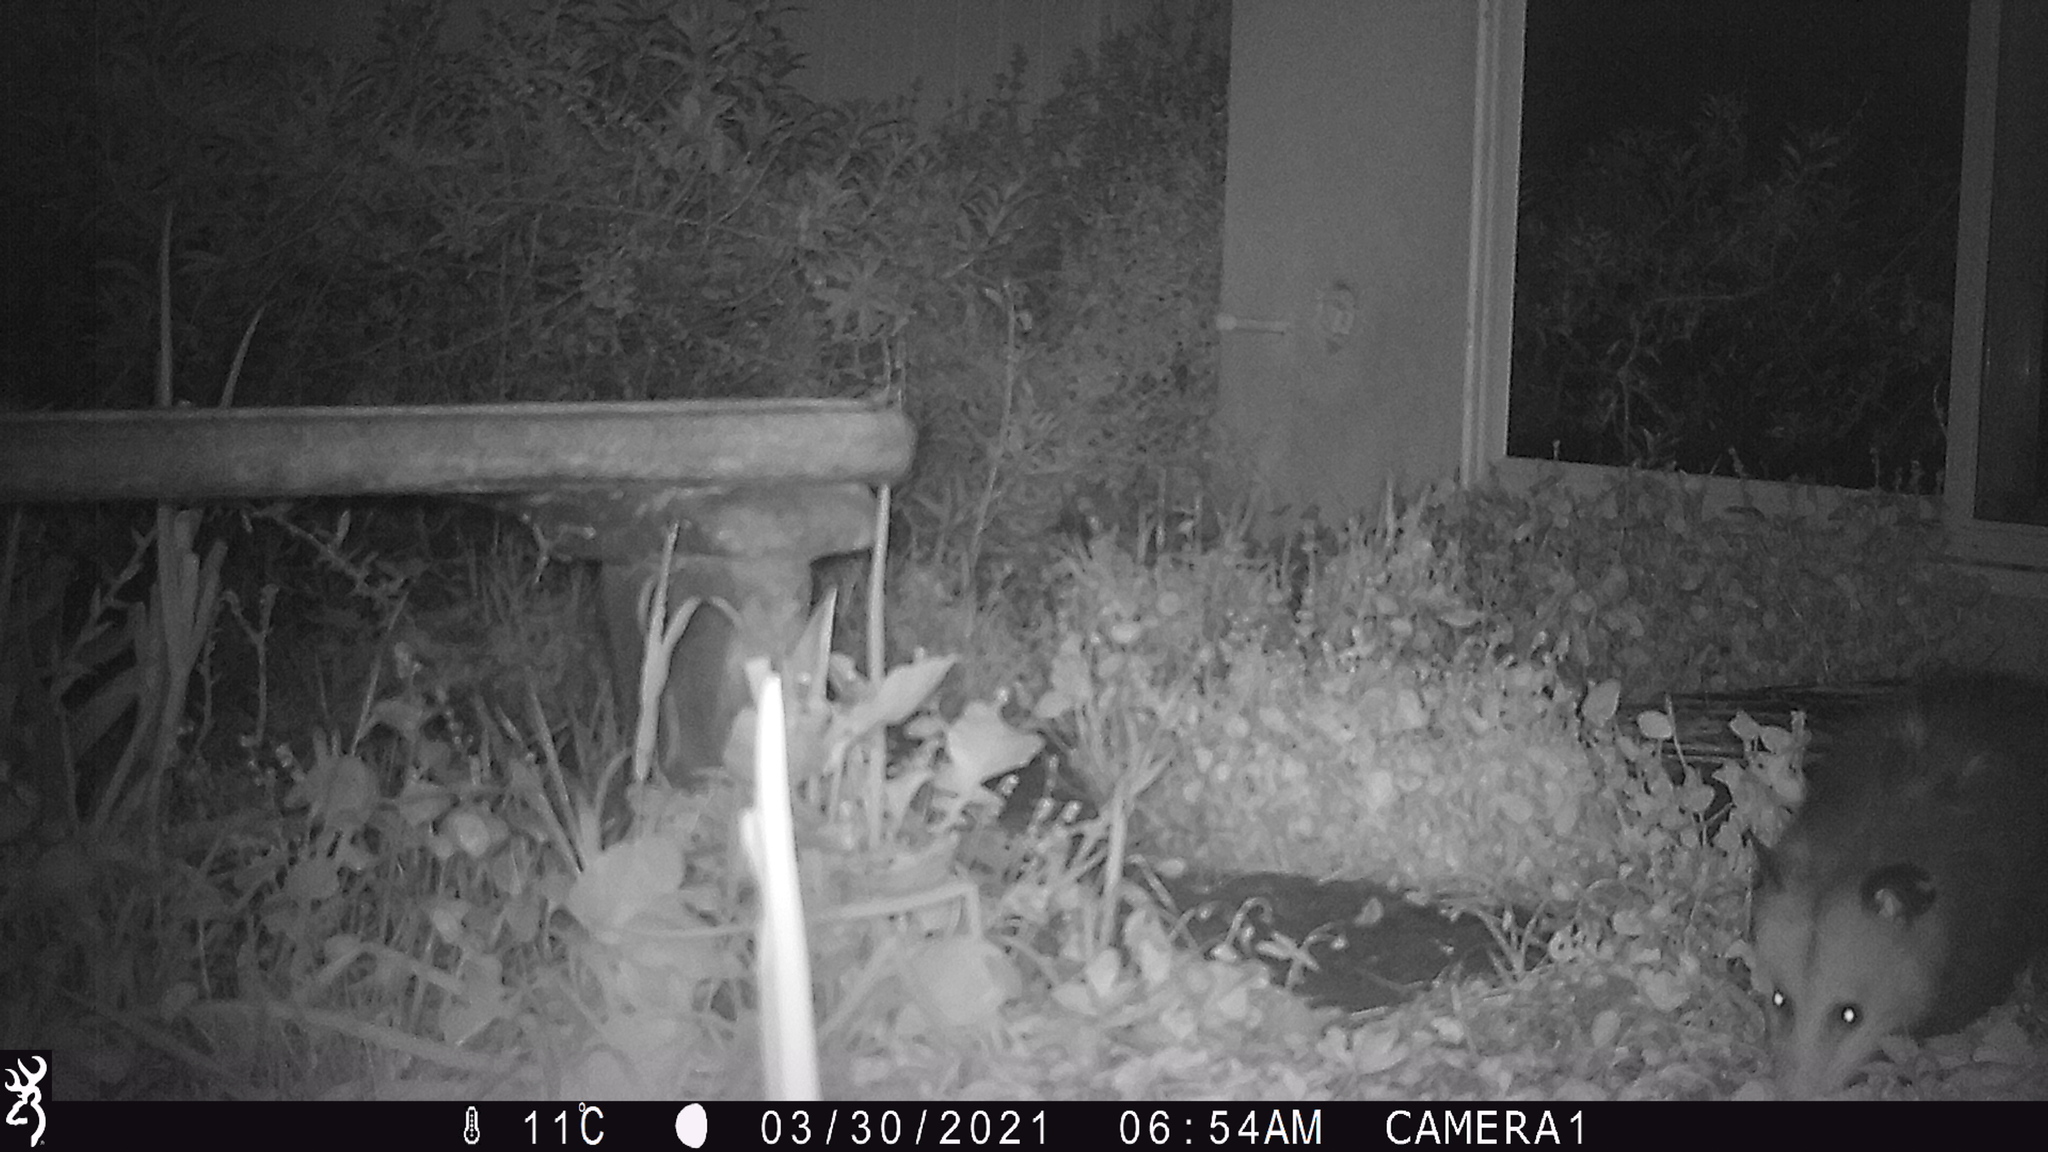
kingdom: Animalia
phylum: Chordata
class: Mammalia
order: Didelphimorphia
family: Didelphidae
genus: Didelphis
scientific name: Didelphis virginiana
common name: Virginia opossum
